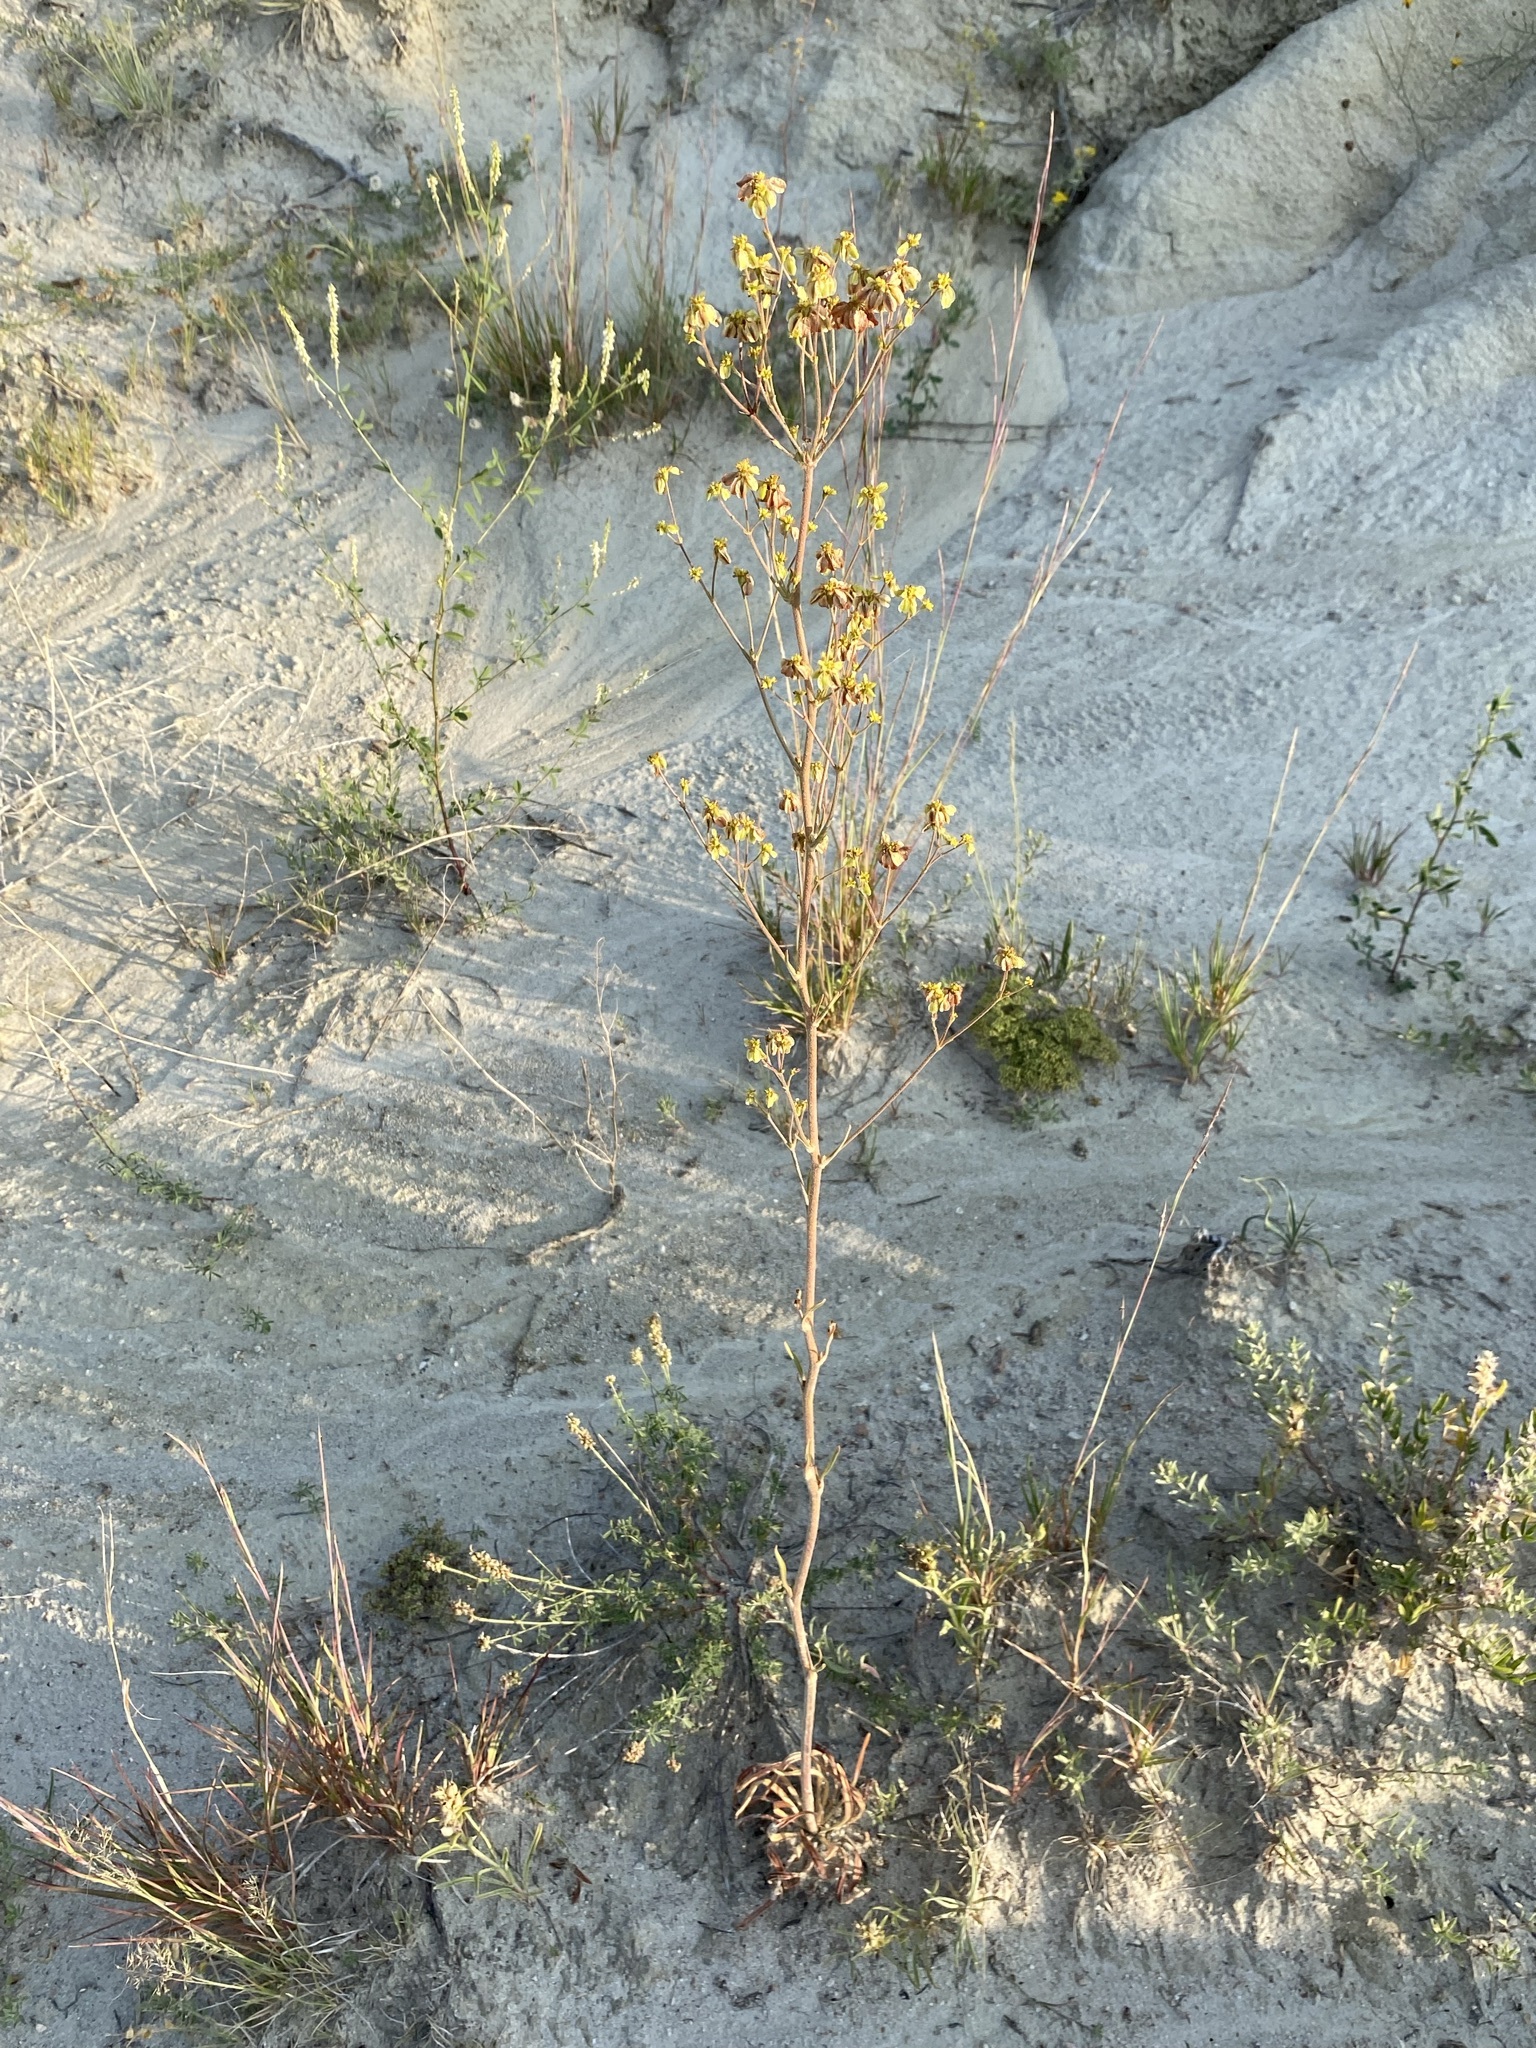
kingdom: Plantae
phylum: Tracheophyta
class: Magnoliopsida
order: Caryophyllales
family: Polygonaceae
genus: Eriogonum
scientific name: Eriogonum alatum
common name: Winged eriogonum
